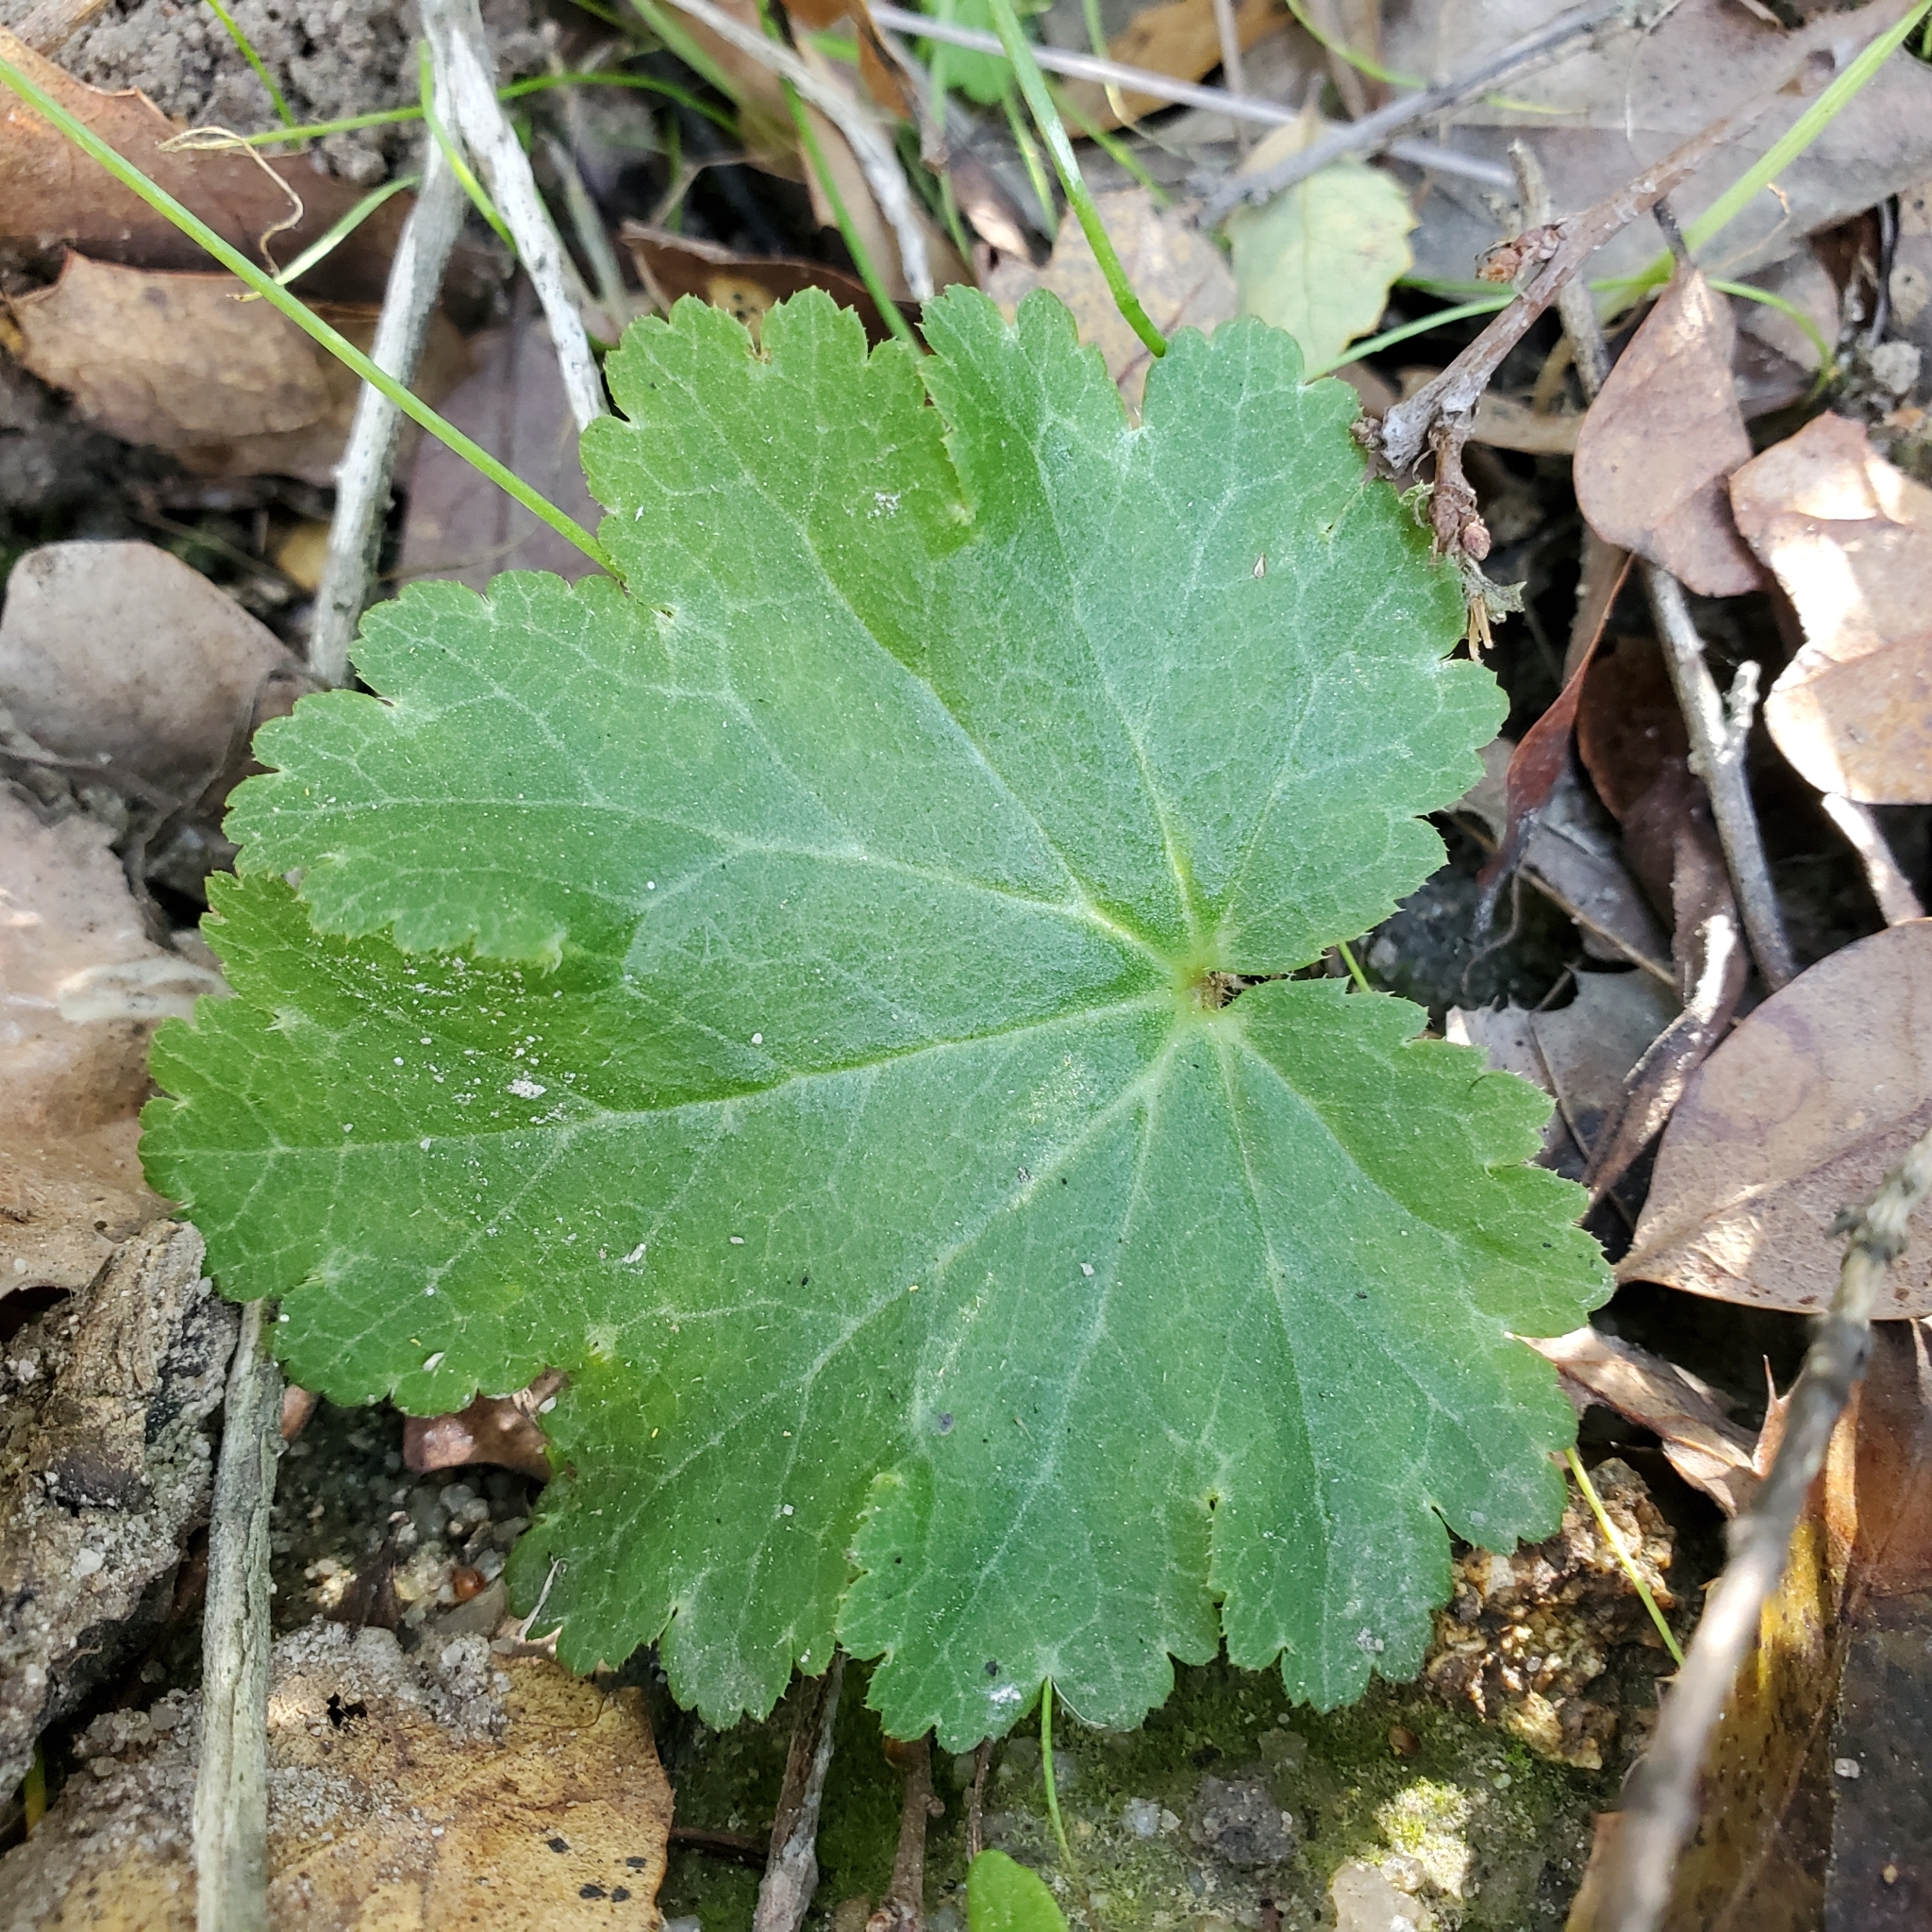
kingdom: Plantae
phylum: Tracheophyta
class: Magnoliopsida
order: Saxifragales
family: Saxifragaceae
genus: Jepsonia
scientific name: Jepsonia parryi
